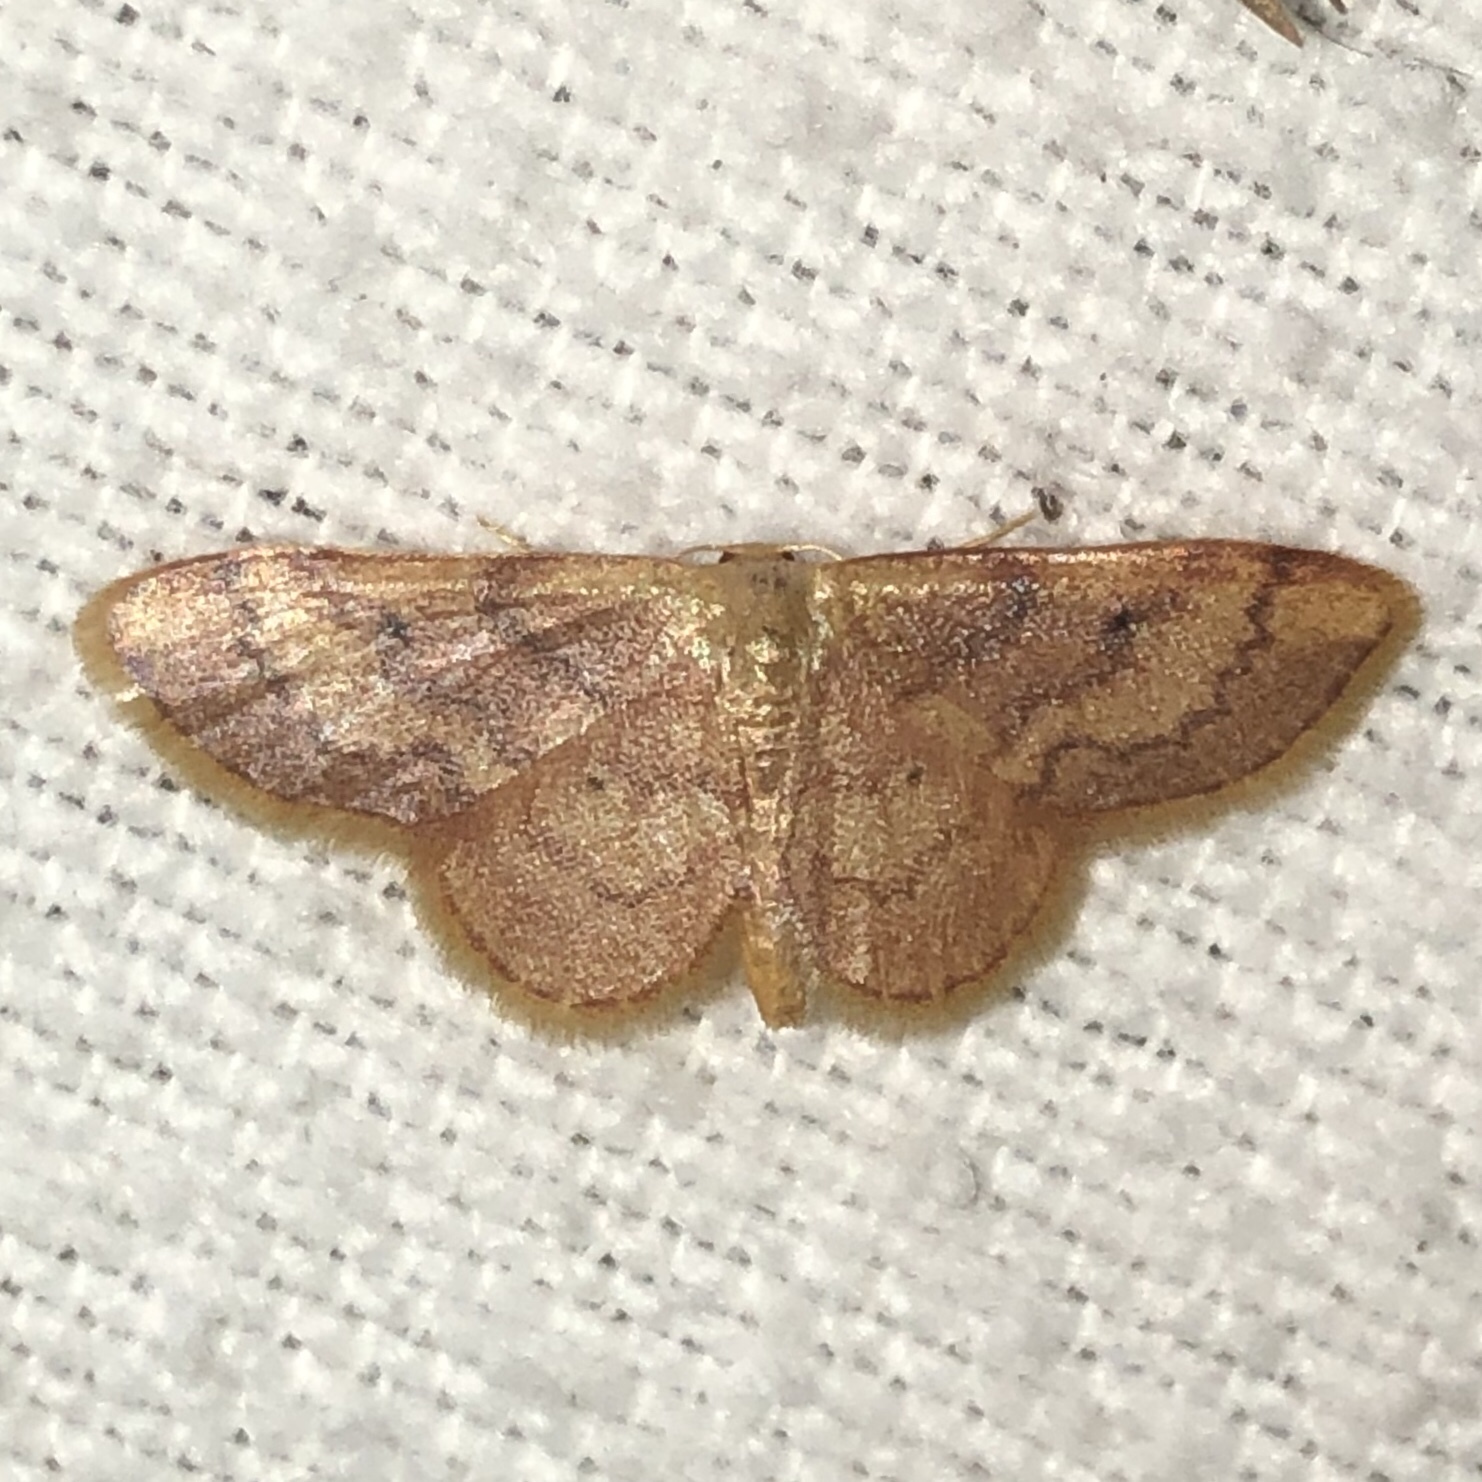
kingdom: Animalia
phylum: Arthropoda
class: Insecta
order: Lepidoptera
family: Geometridae
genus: Idaea
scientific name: Idaea demissaria
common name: Red-bordered wave
